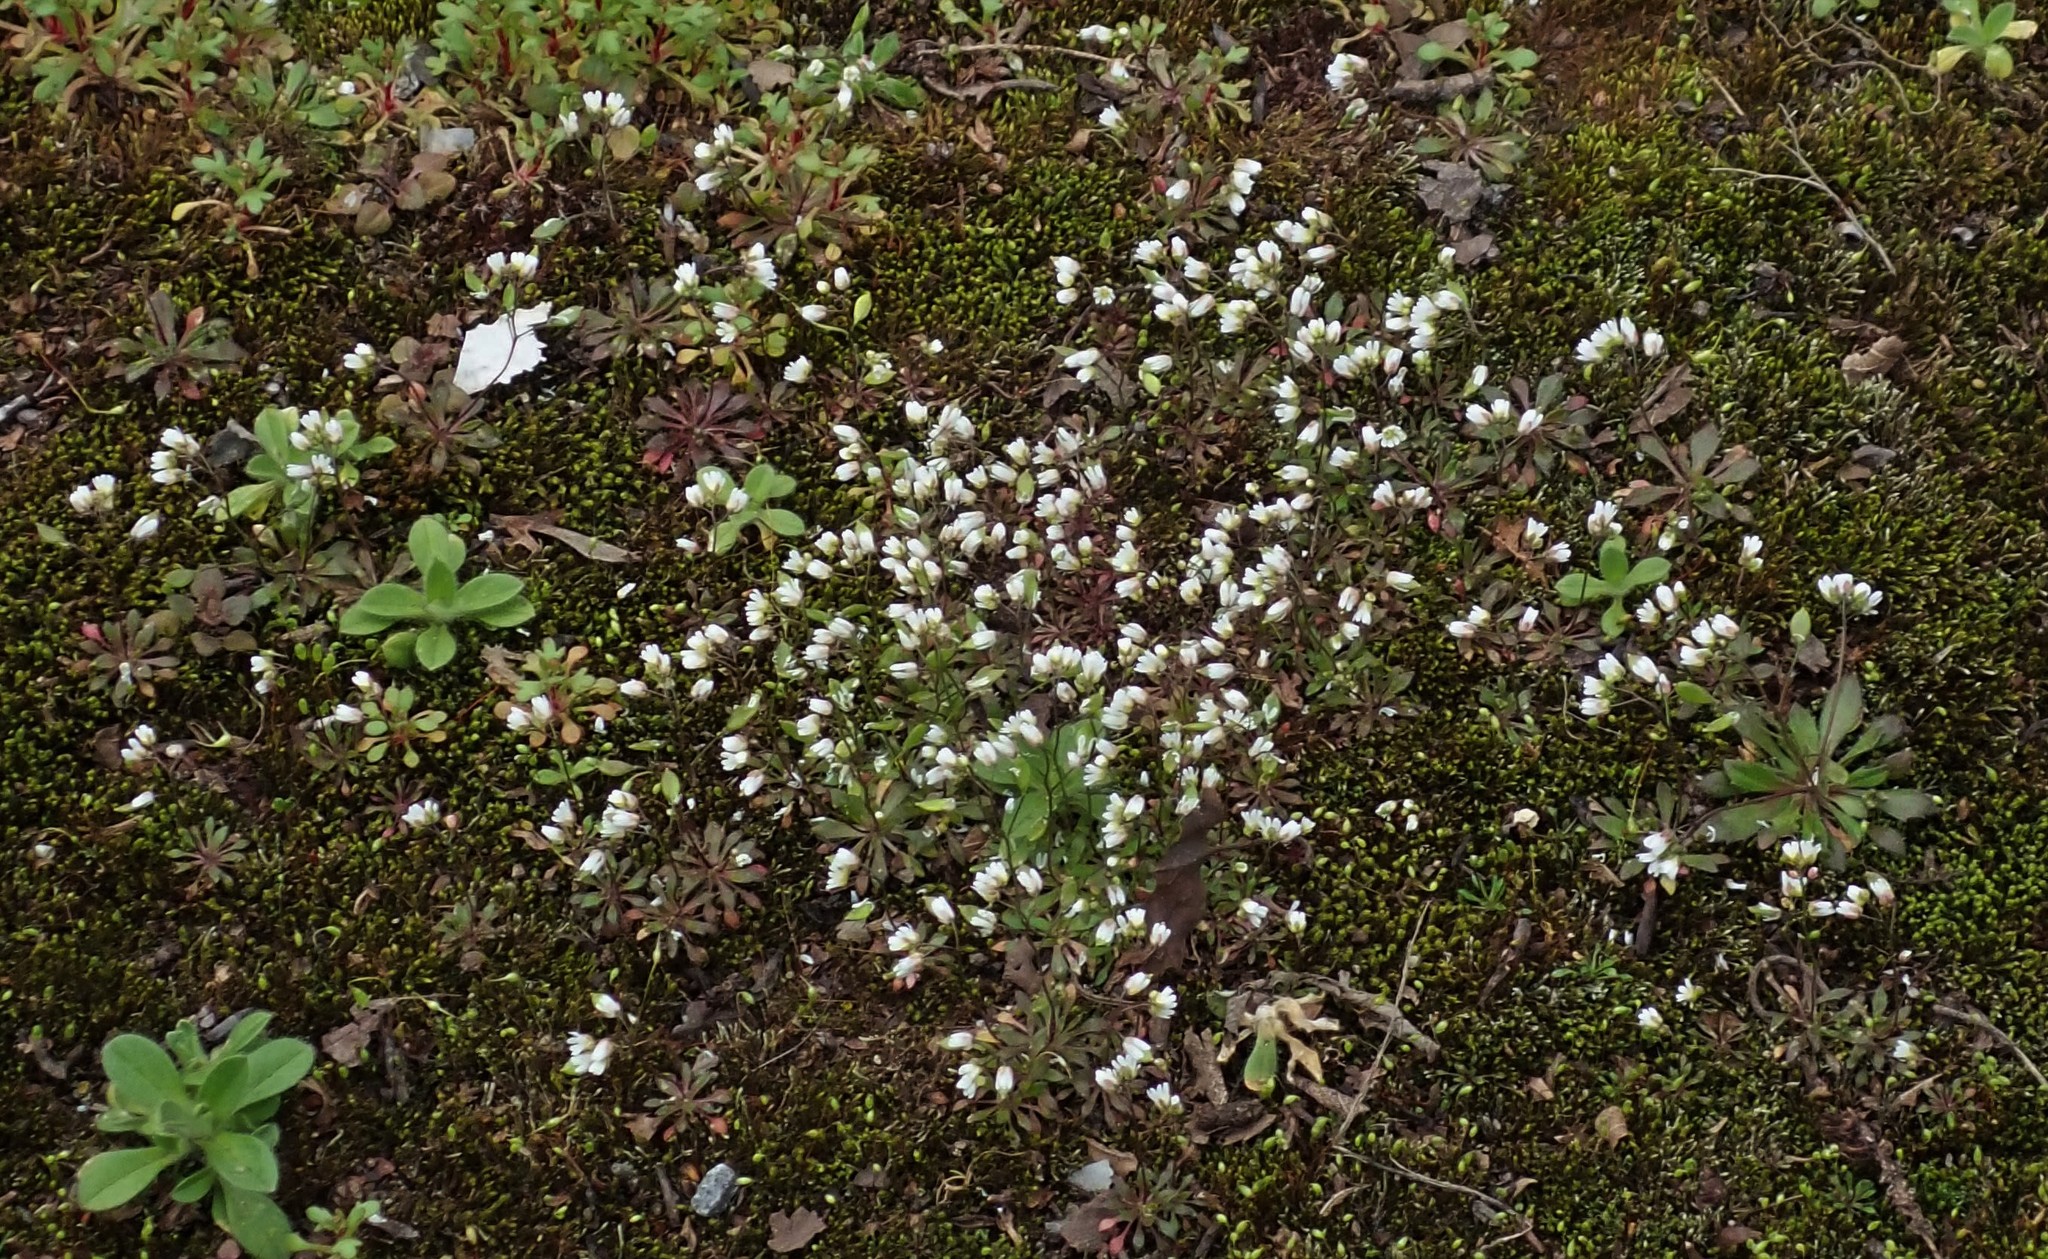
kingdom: Plantae
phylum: Tracheophyta
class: Magnoliopsida
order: Brassicales
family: Brassicaceae
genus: Draba
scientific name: Draba verna
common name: Spring draba
